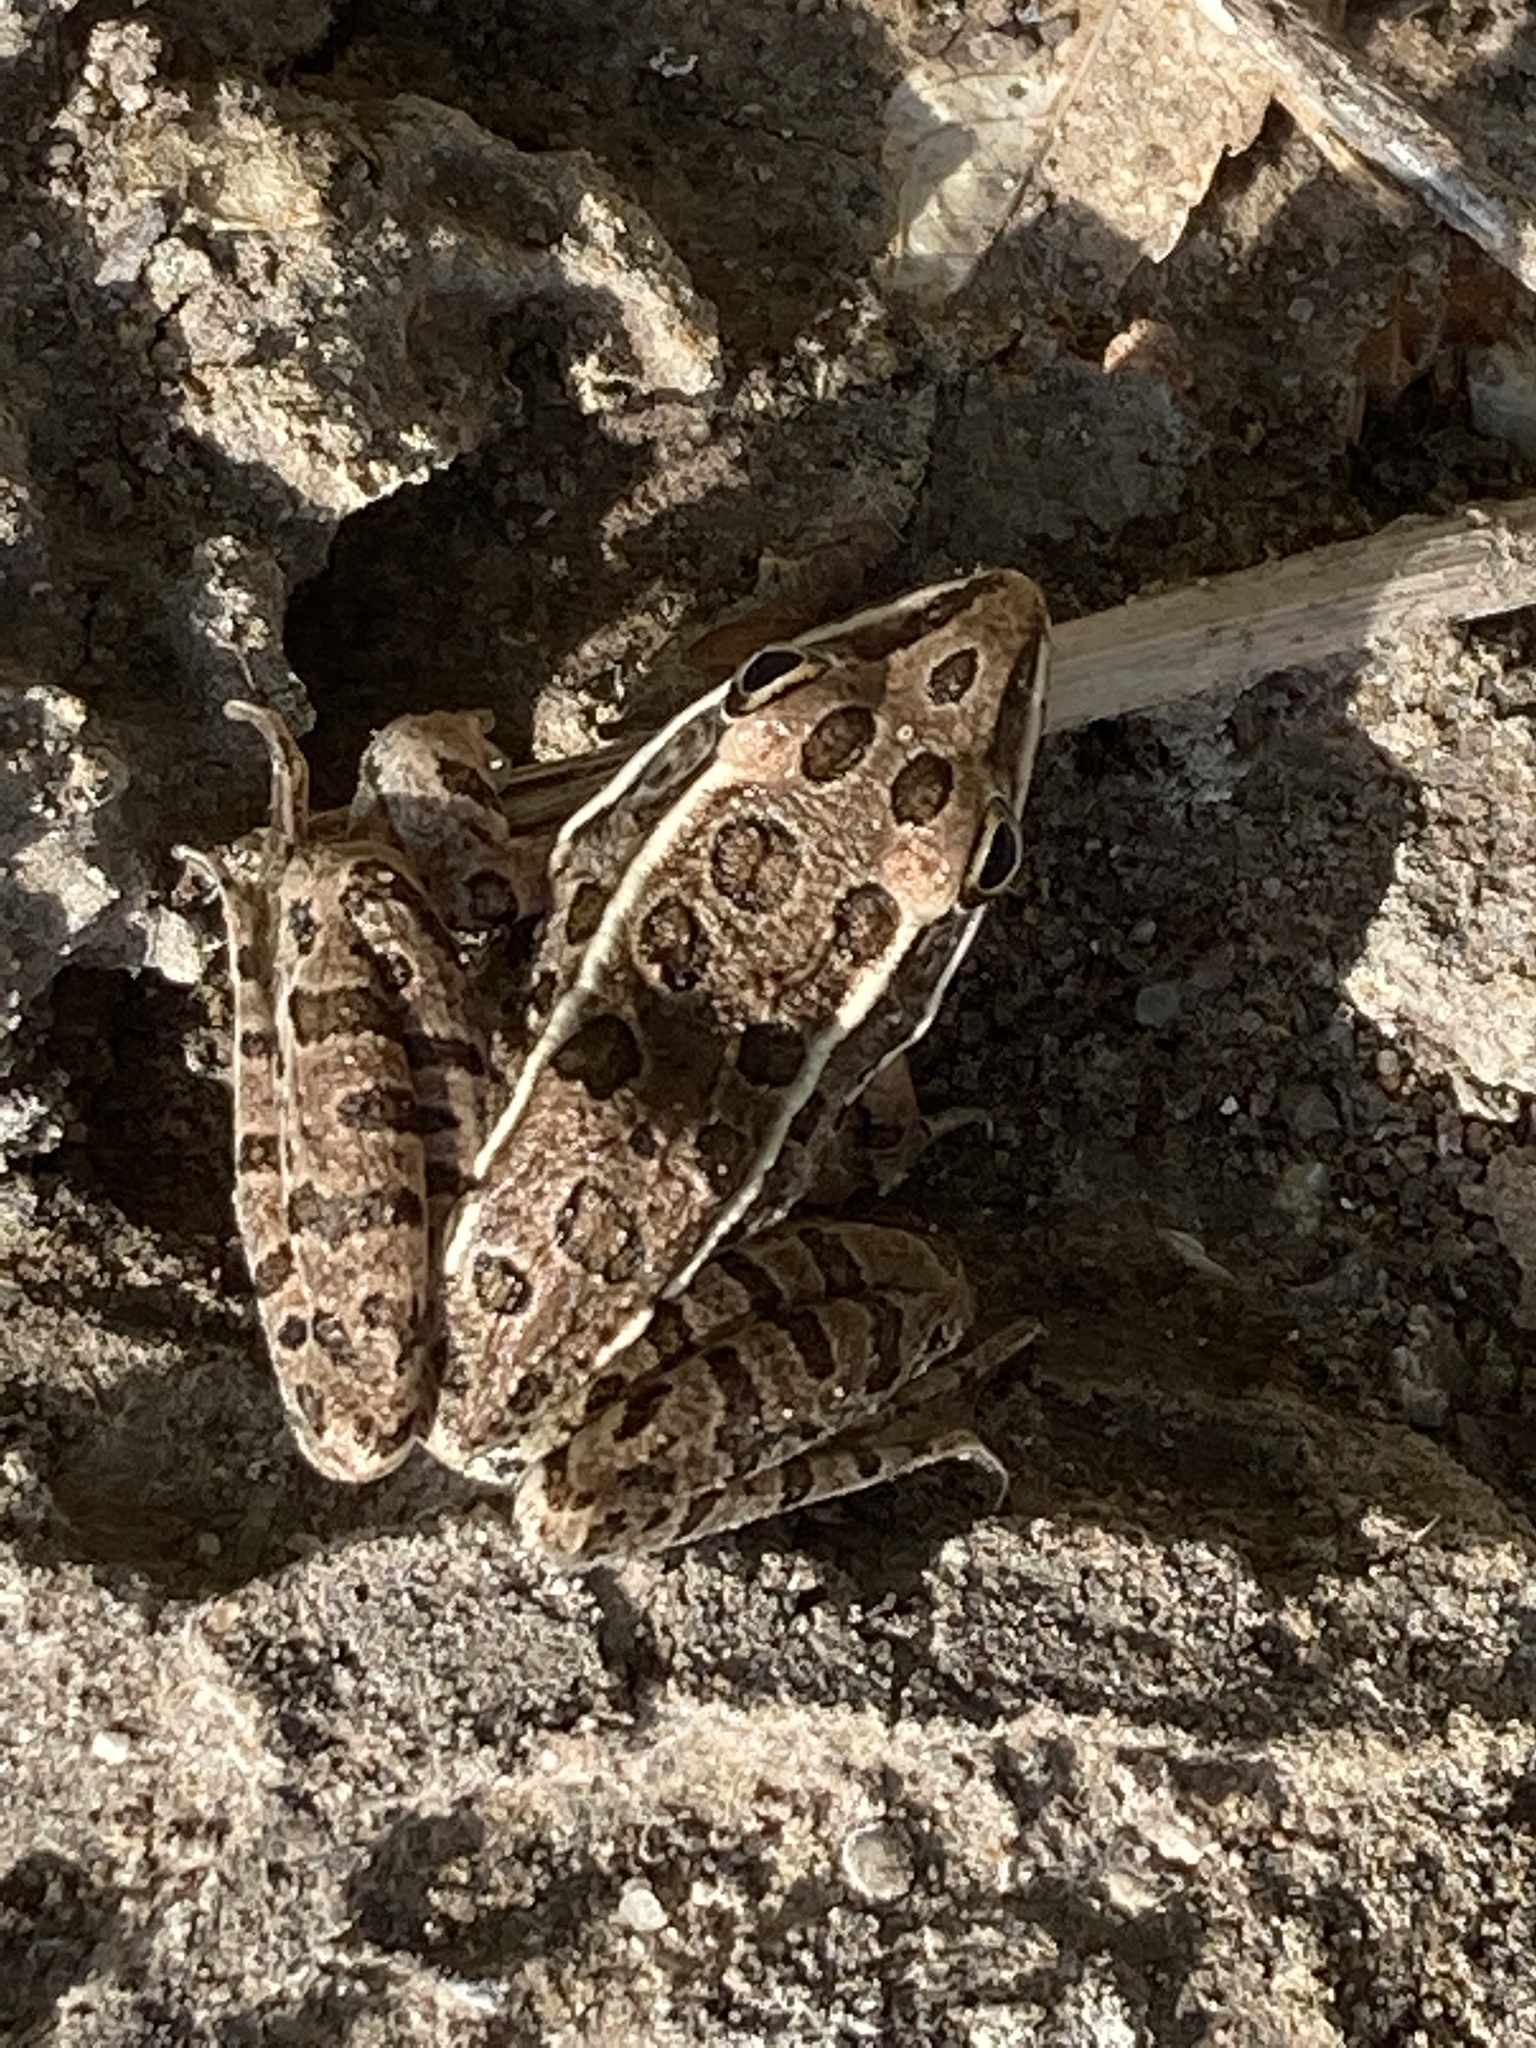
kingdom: Animalia
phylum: Chordata
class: Amphibia
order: Anura
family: Ranidae
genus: Lithobates
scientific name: Lithobates blairi
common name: Plains leopard frog
